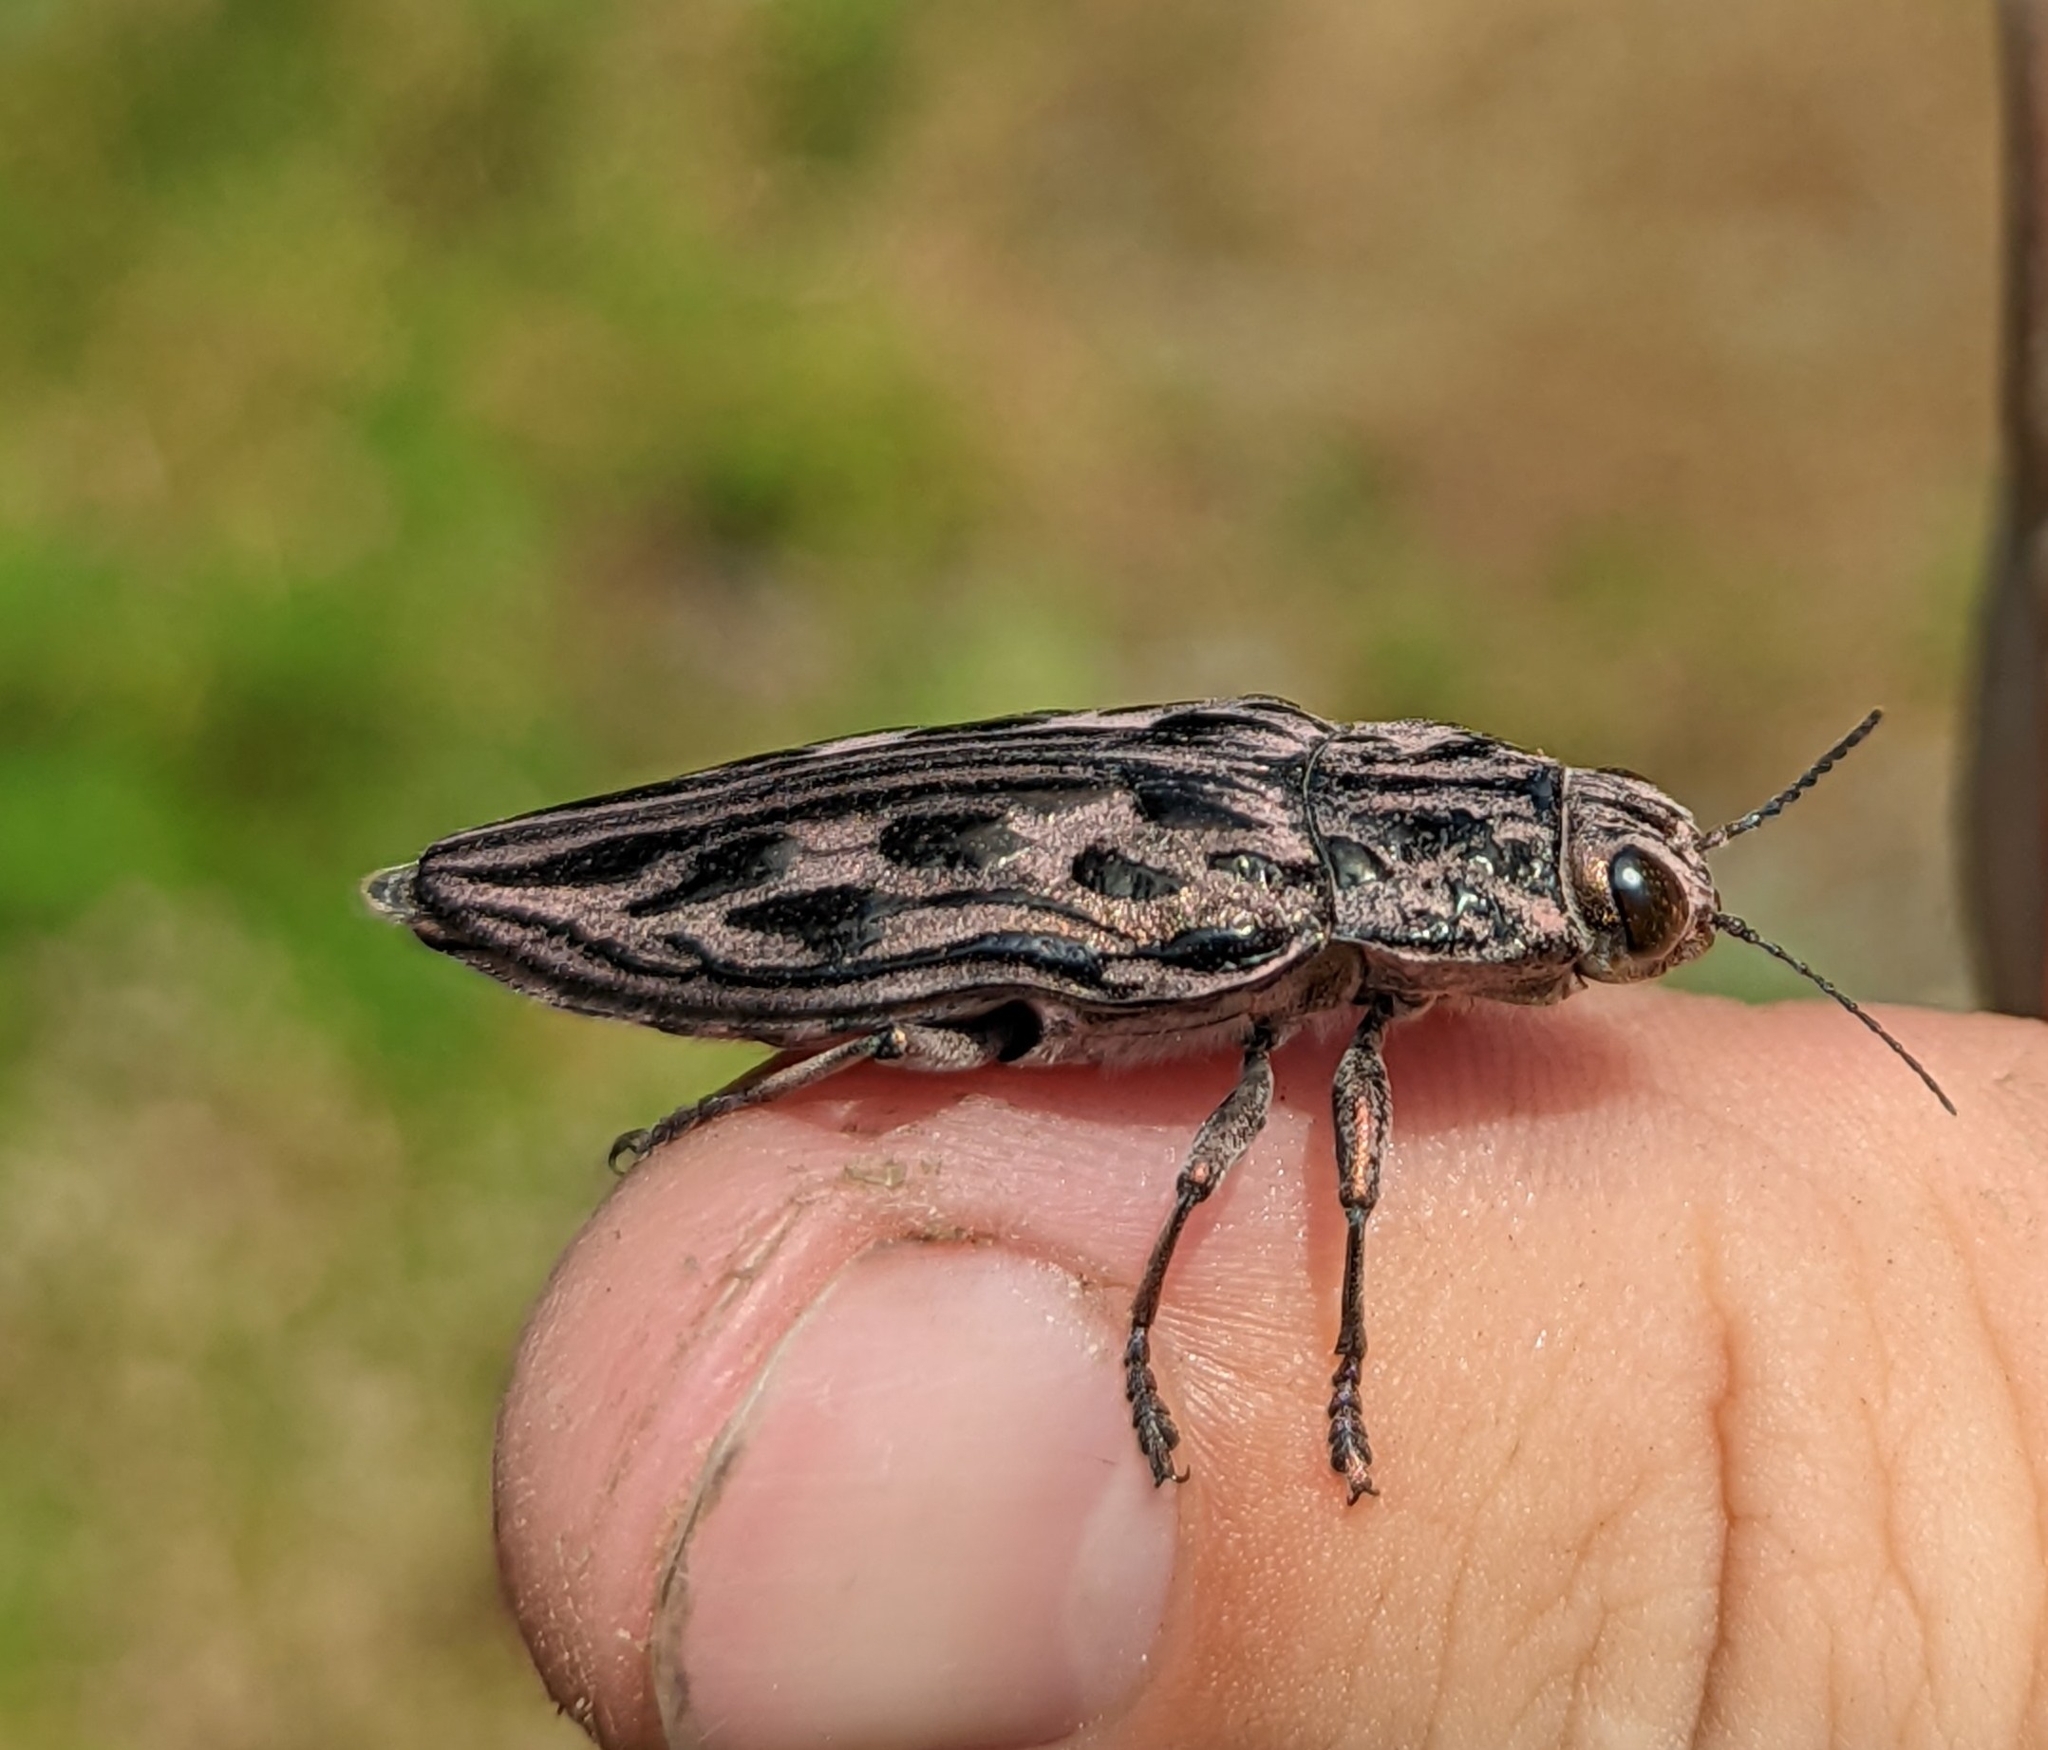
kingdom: Animalia
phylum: Arthropoda
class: Insecta
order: Coleoptera
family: Buprestidae
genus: Chalcophora
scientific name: Chalcophora angulicollis
